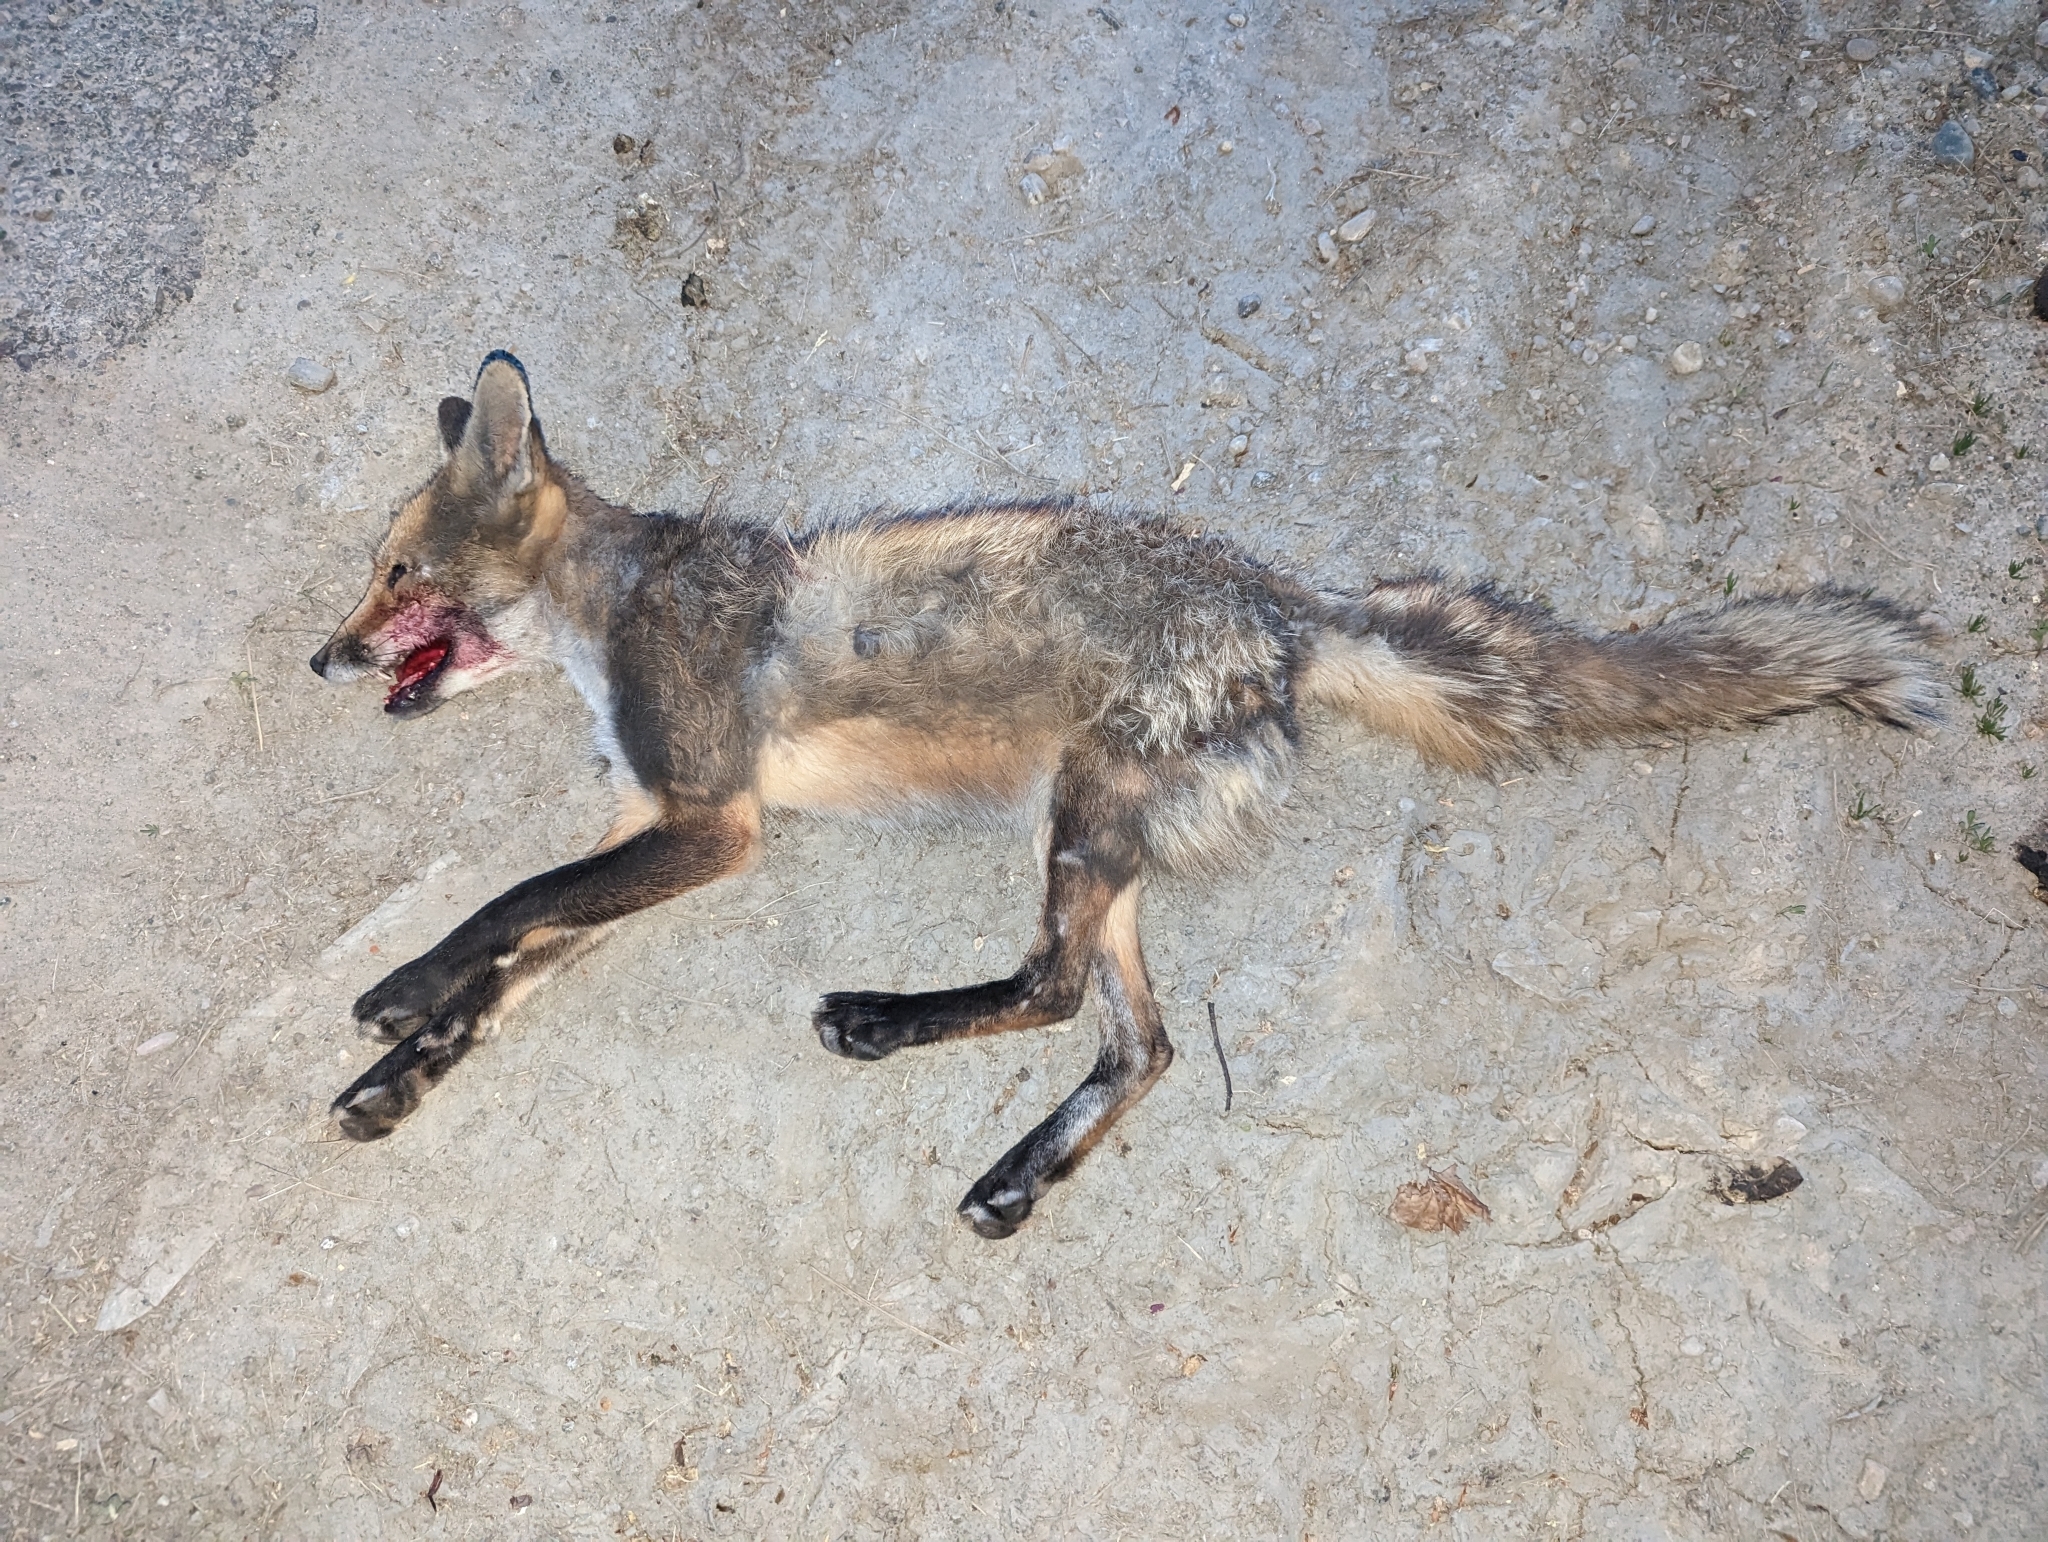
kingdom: Animalia
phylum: Chordata
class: Mammalia
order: Carnivora
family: Canidae
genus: Vulpes
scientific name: Vulpes vulpes
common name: Red fox
